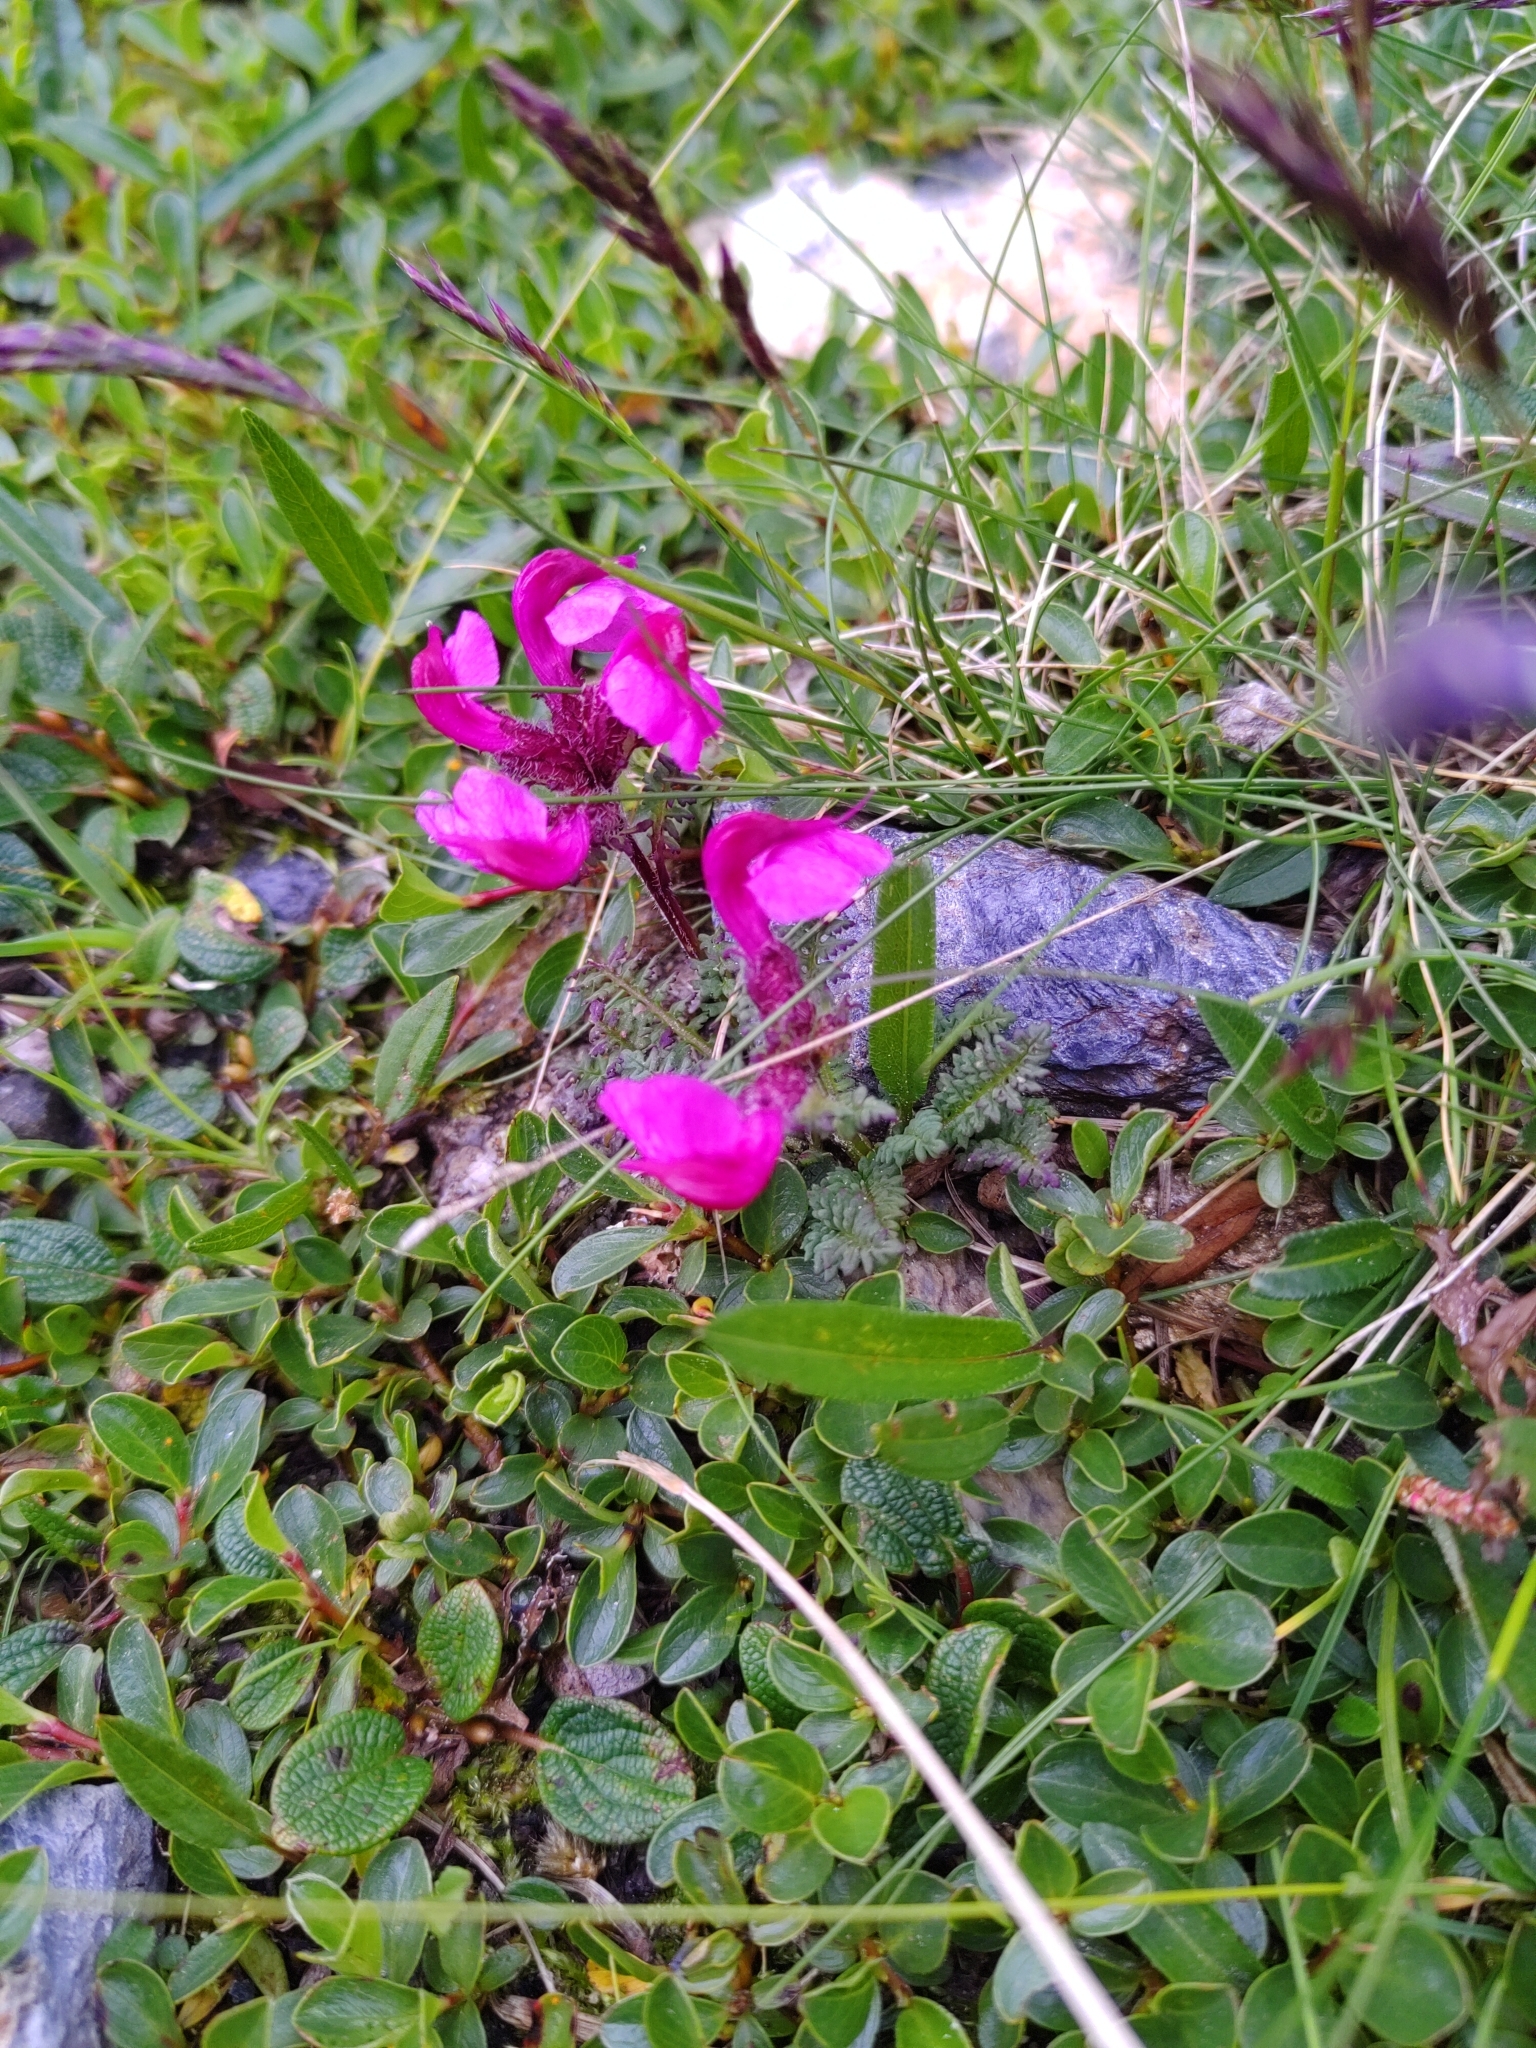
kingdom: Plantae
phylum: Tracheophyta
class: Magnoliopsida
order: Lamiales
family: Orobanchaceae
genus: Pedicularis
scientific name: Pedicularis asplenifolia
